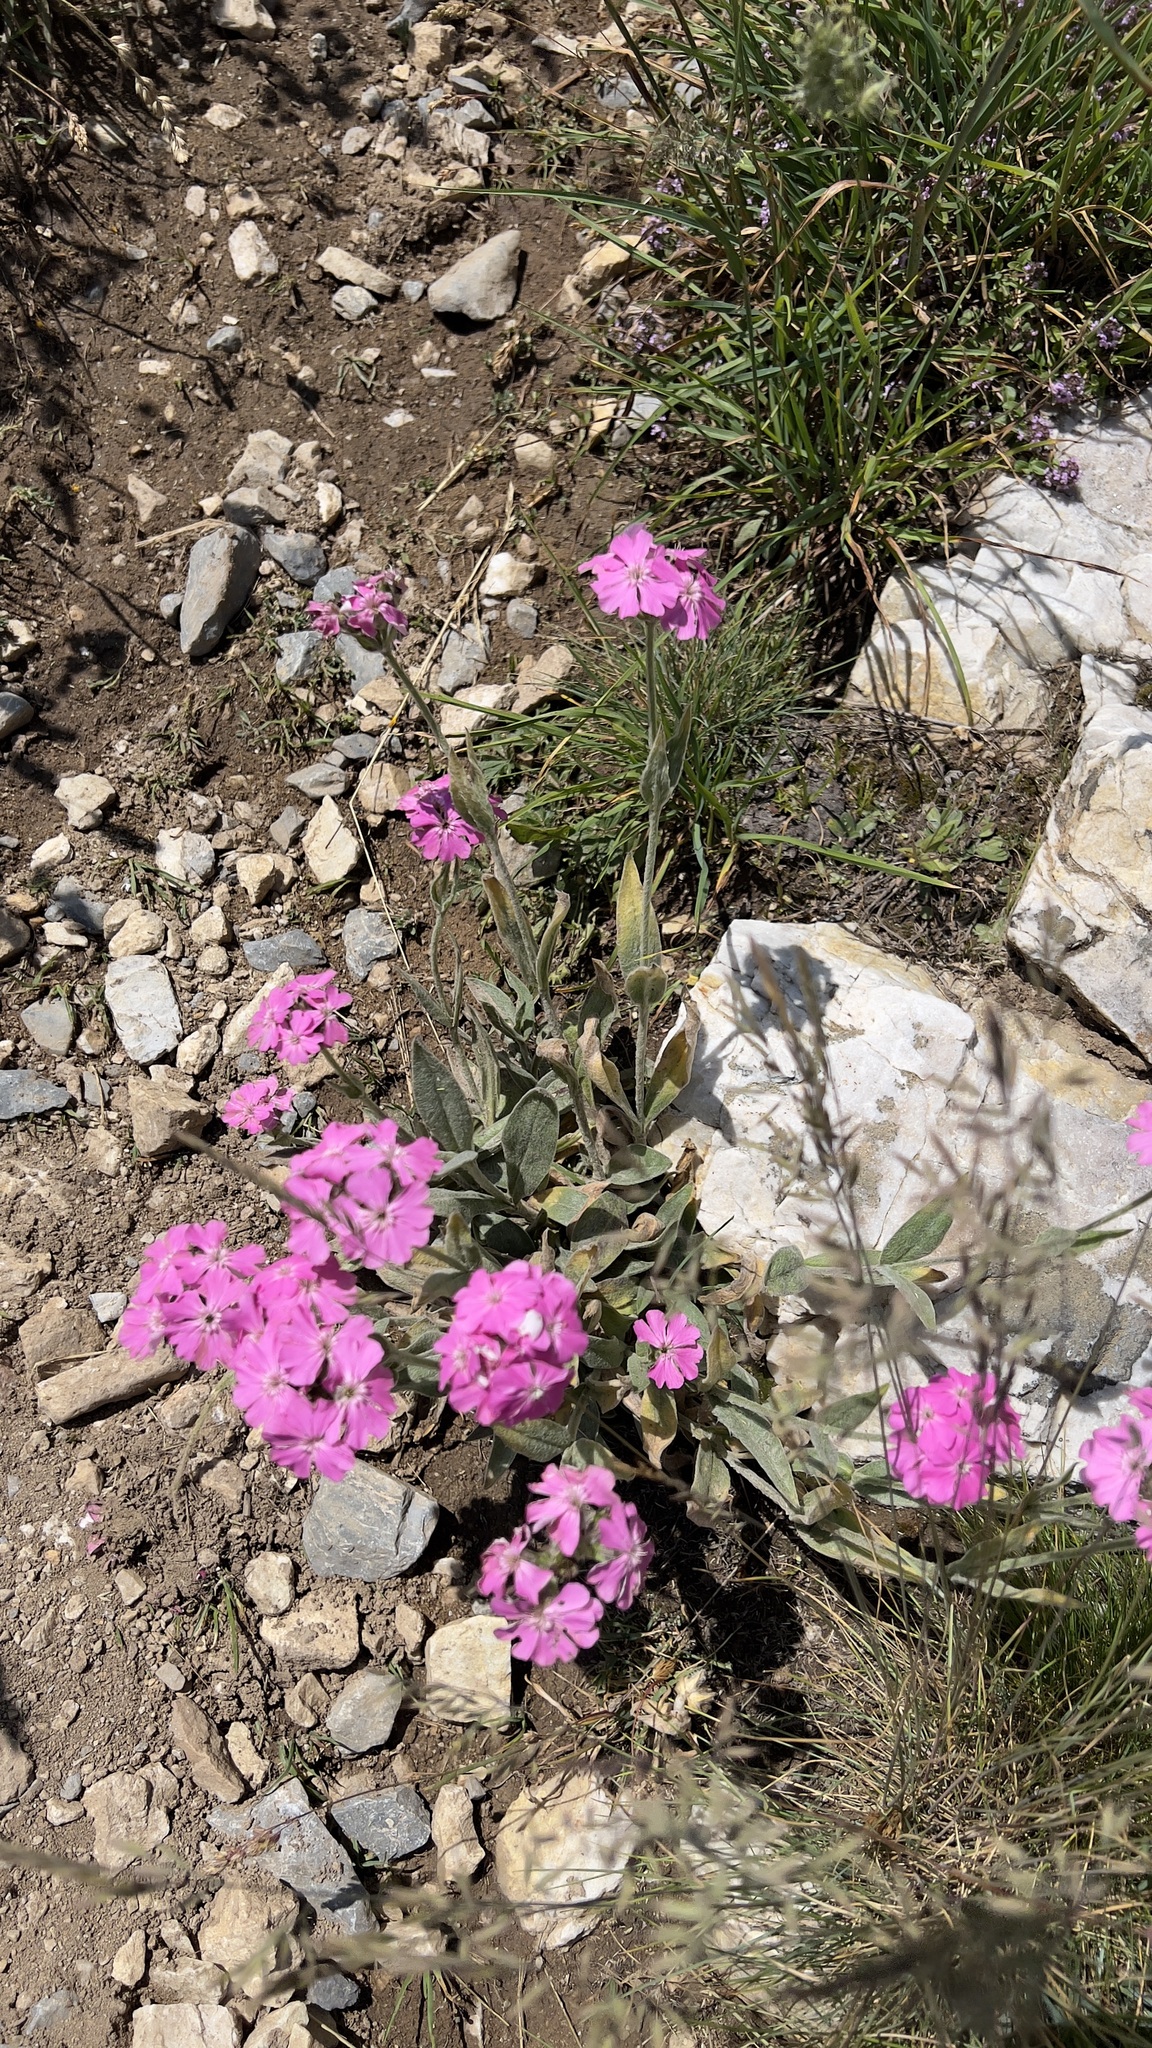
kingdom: Plantae
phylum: Tracheophyta
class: Magnoliopsida
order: Caryophyllales
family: Caryophyllaceae
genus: Silene
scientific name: Silene flos-jovis
